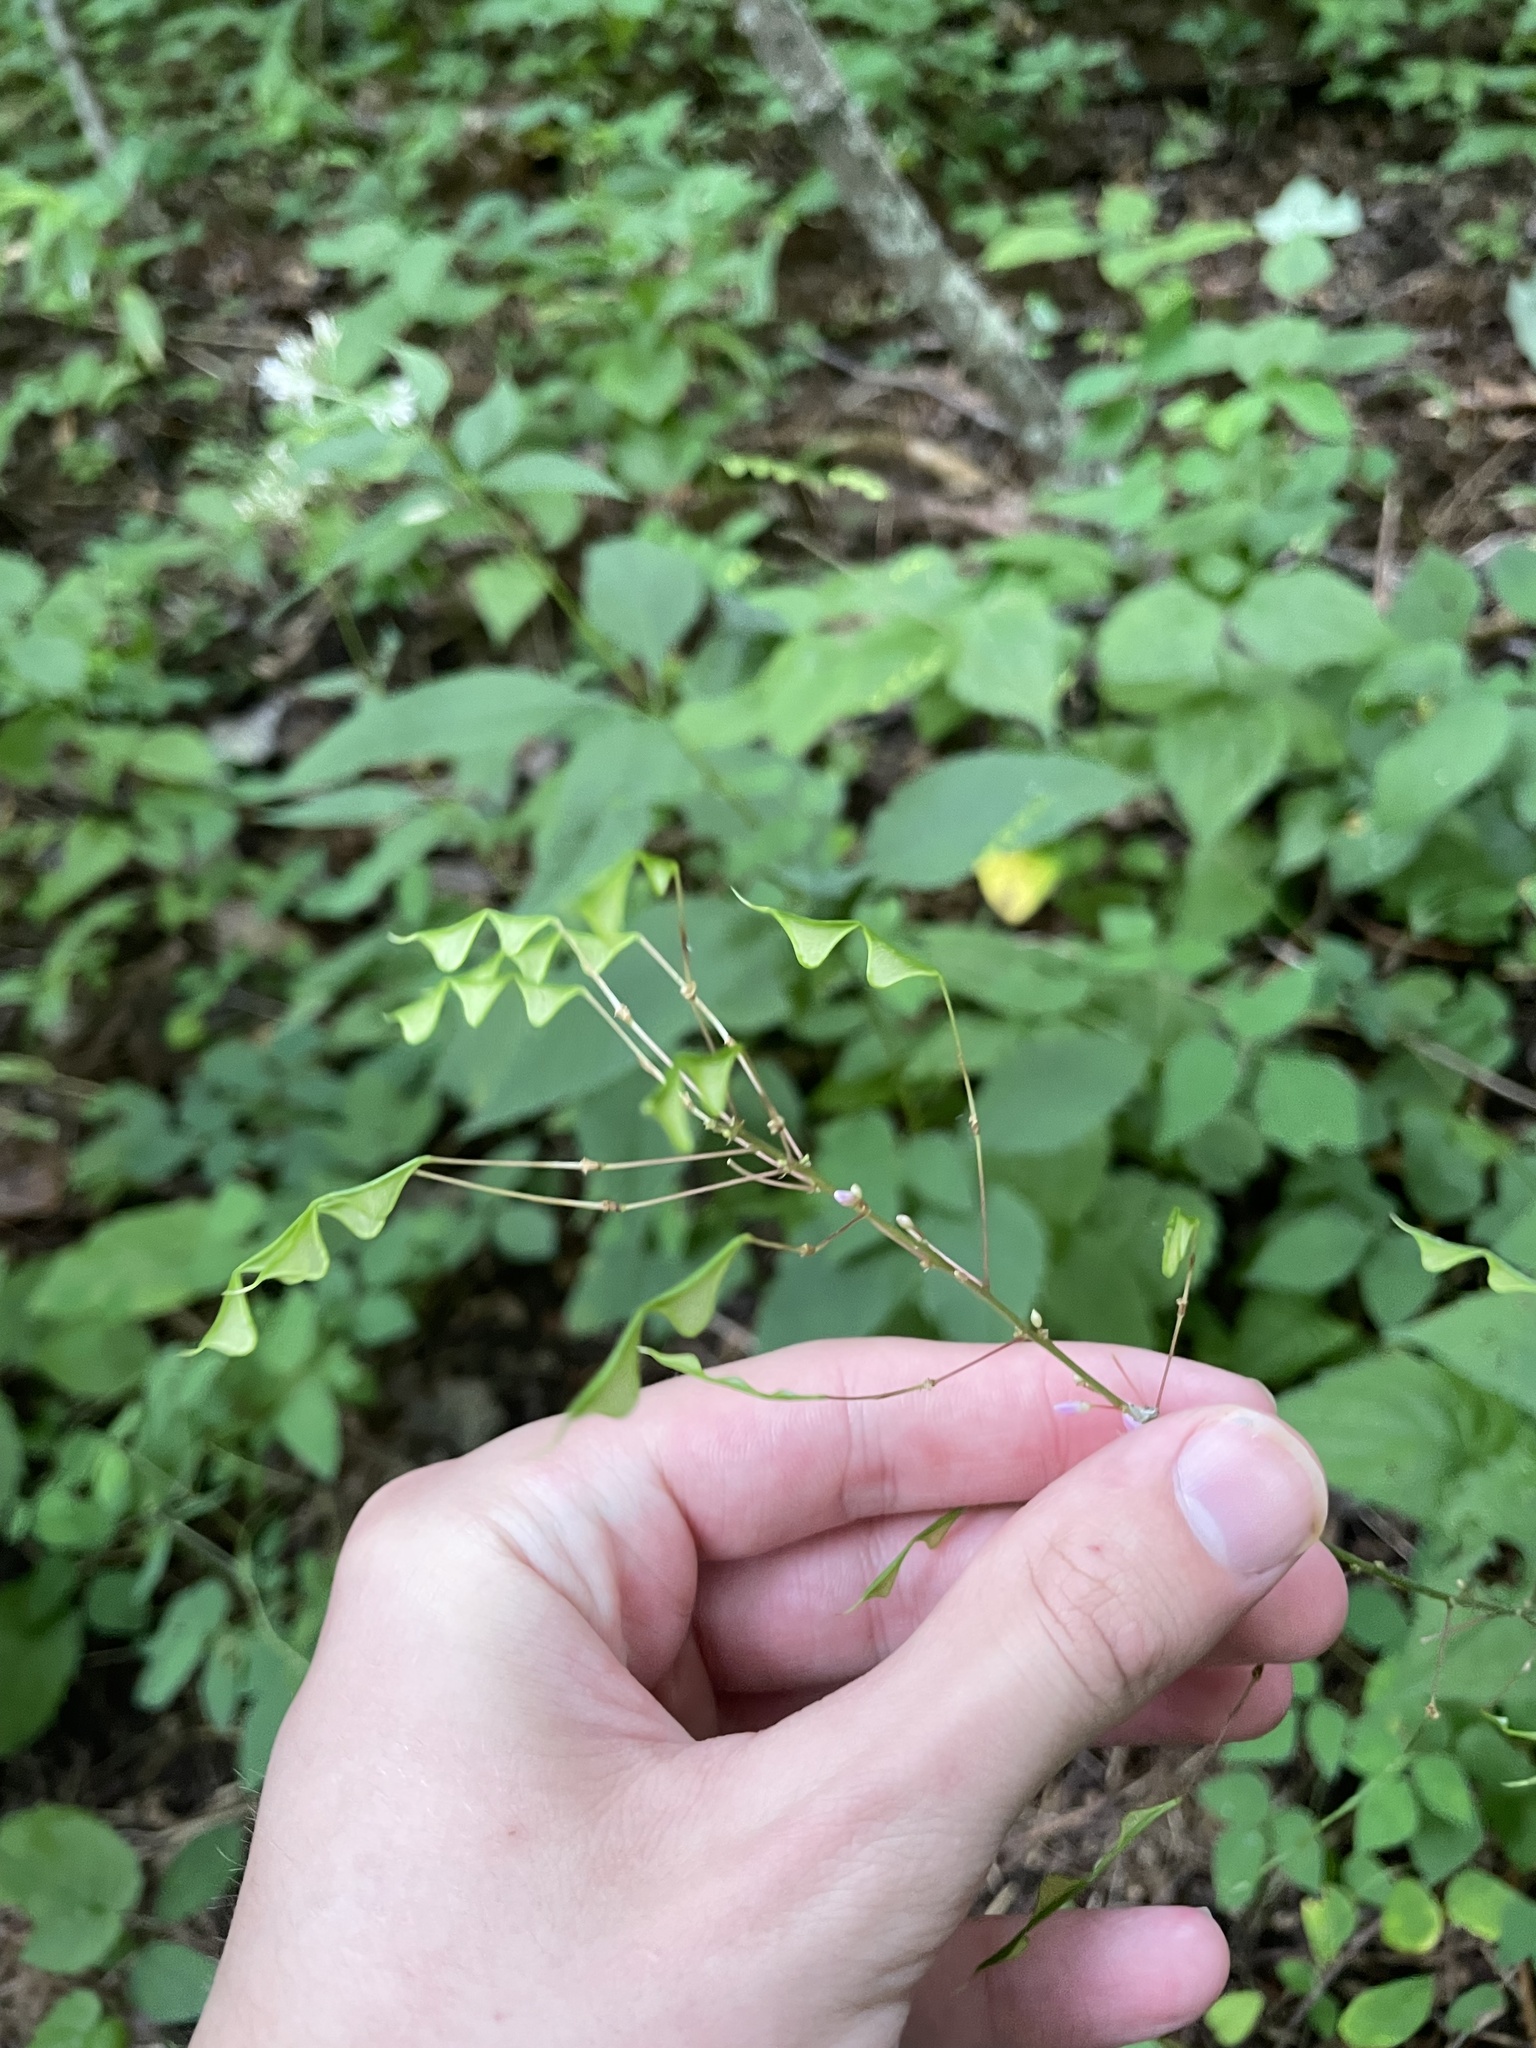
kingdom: Plantae
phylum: Tracheophyta
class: Magnoliopsida
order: Fabales
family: Fabaceae
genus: Hylodesmum
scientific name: Hylodesmum nudiflorum
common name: Bare-stemmed tick-trefoil
